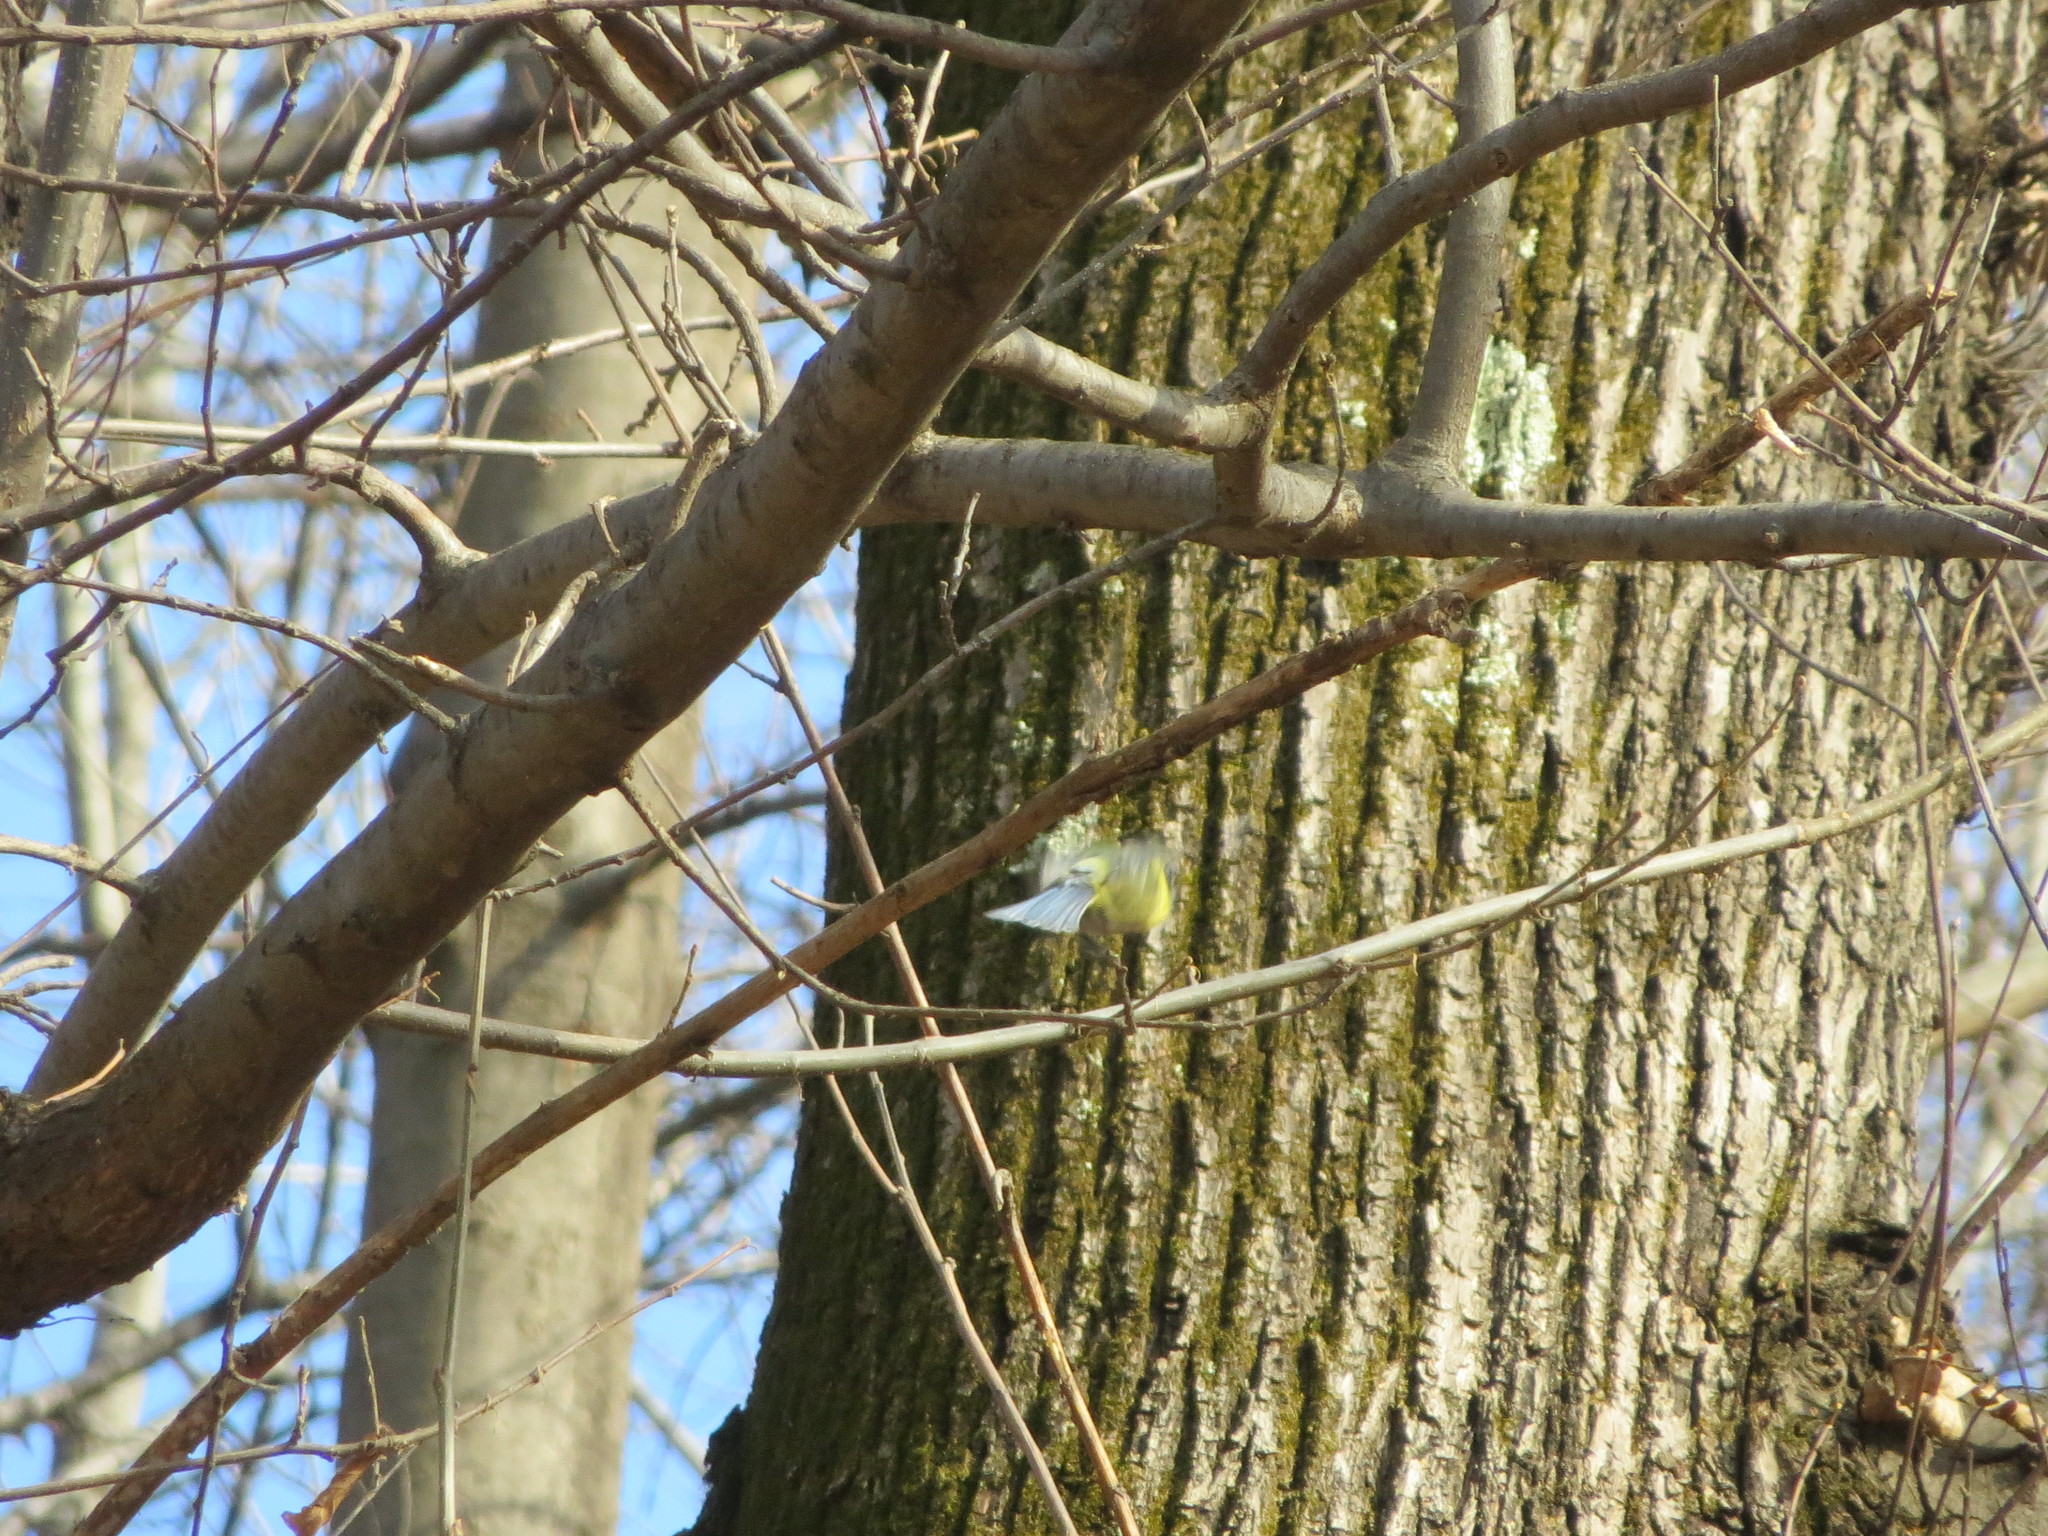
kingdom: Animalia
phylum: Chordata
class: Aves
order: Passeriformes
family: Paridae
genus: Cyanistes
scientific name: Cyanistes caeruleus
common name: Eurasian blue tit
